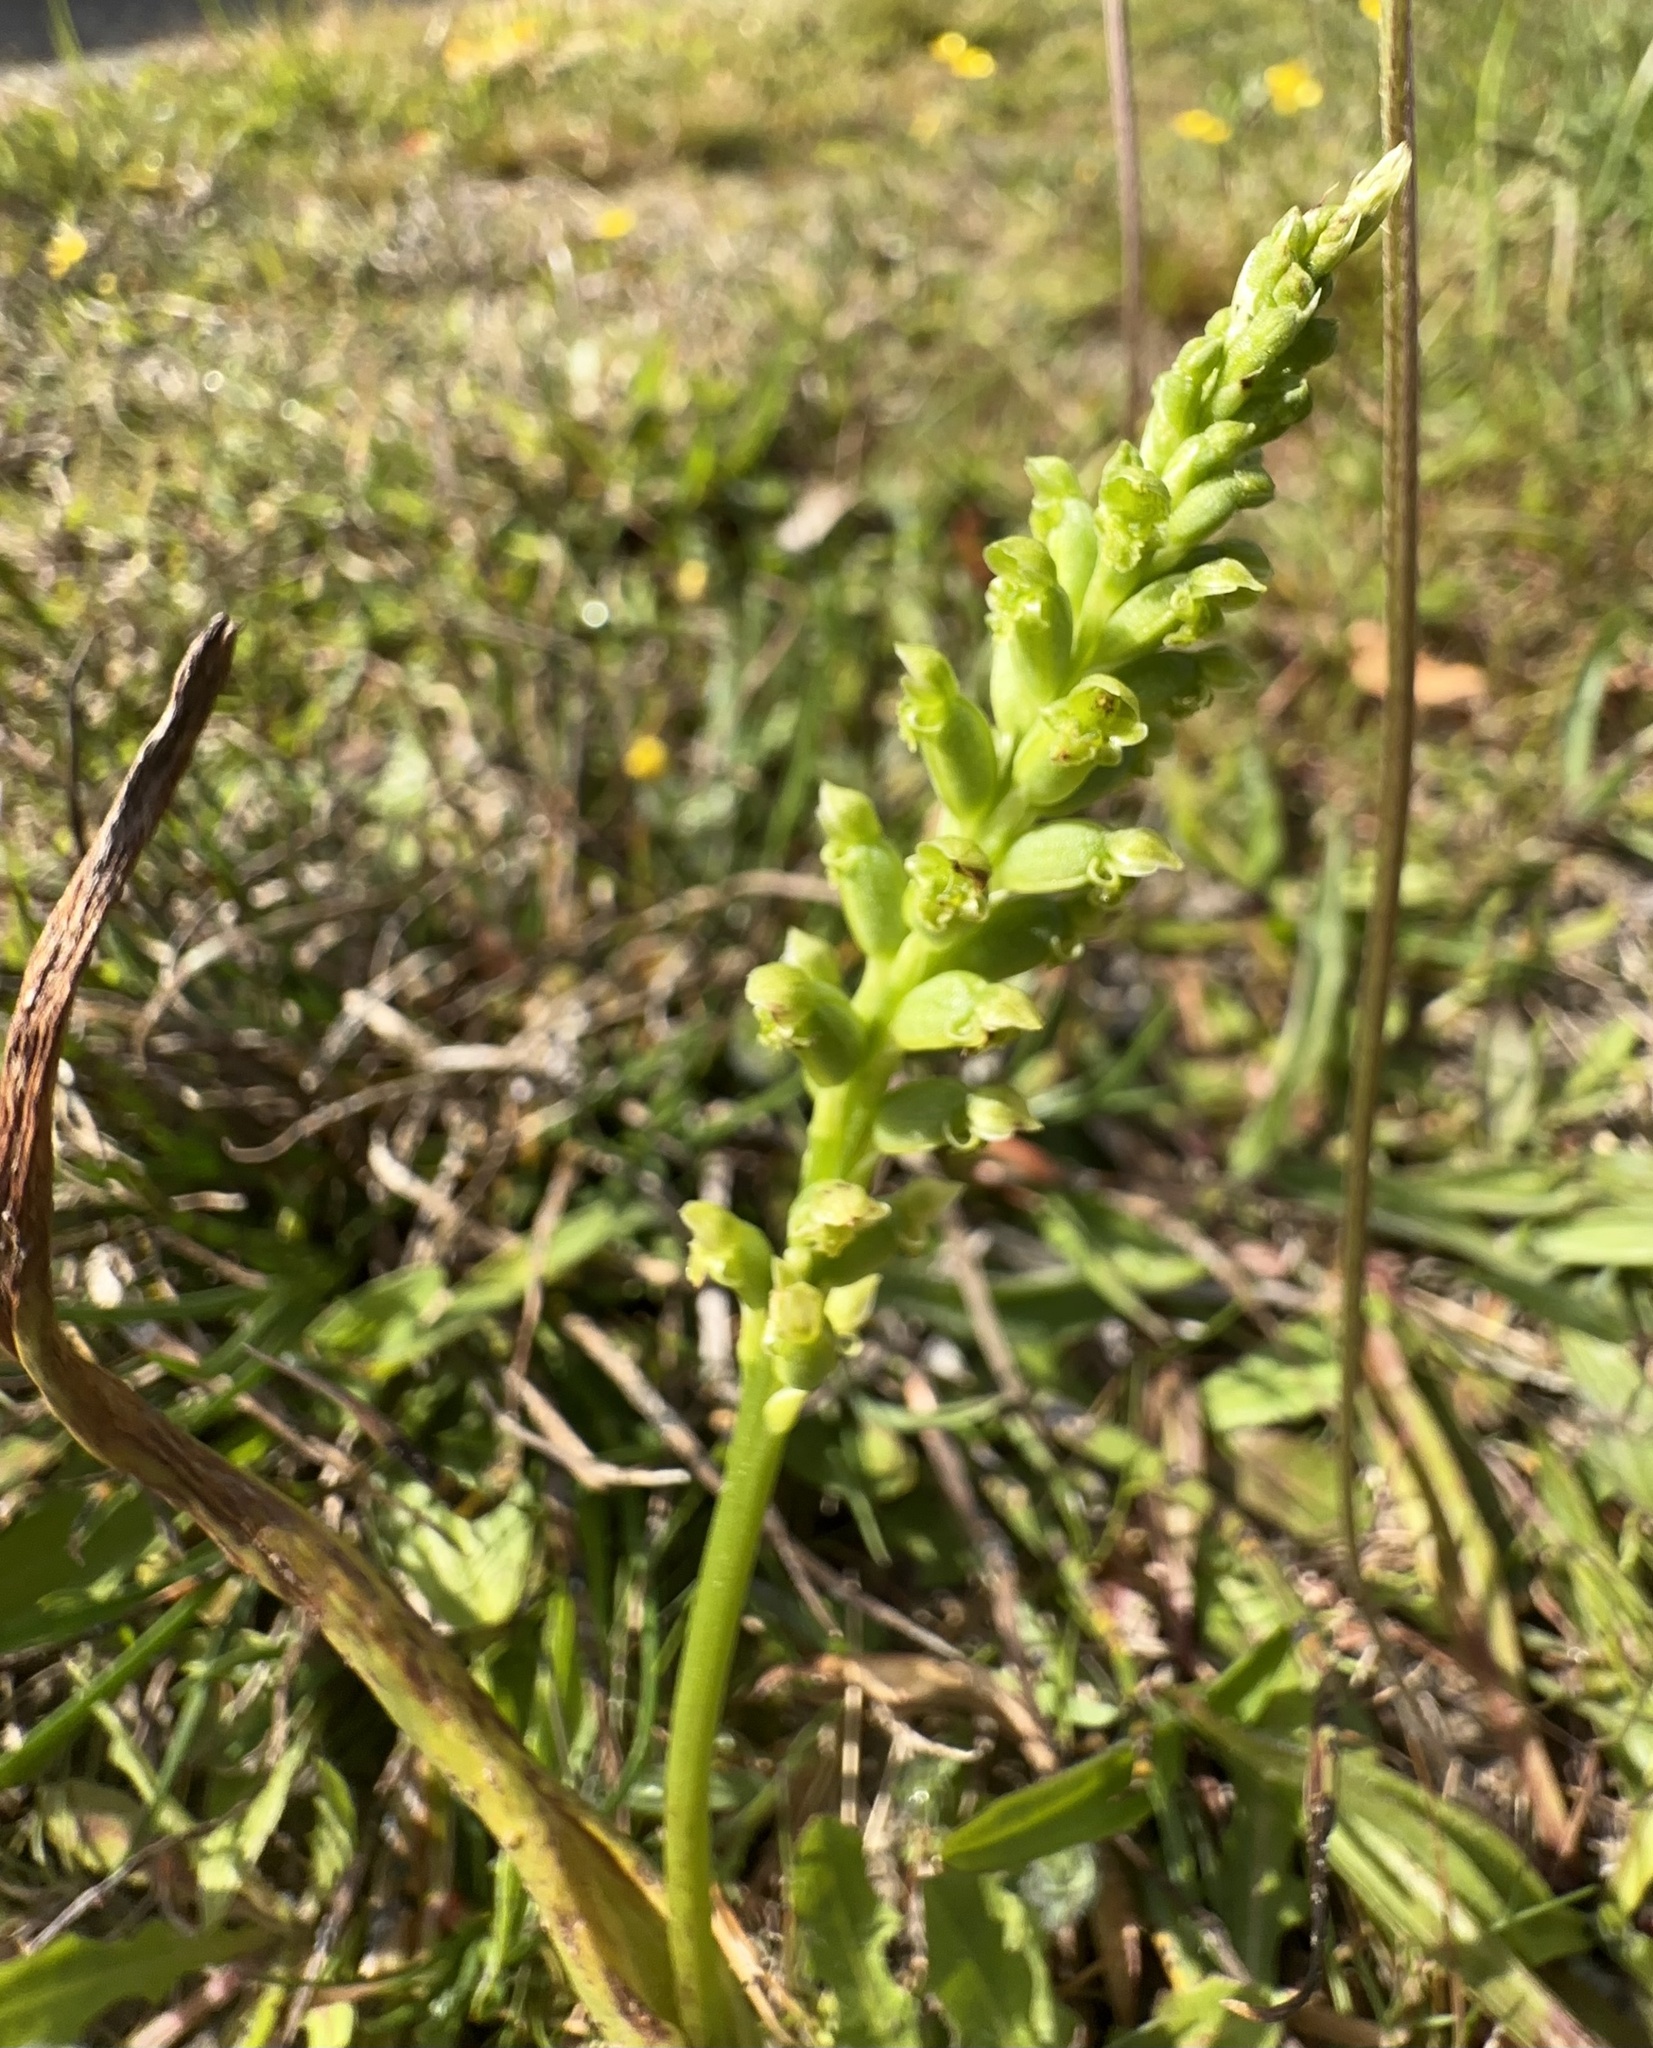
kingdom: Plantae
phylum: Tracheophyta
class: Liliopsida
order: Asparagales
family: Orchidaceae
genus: Microtis
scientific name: Microtis unifolia
